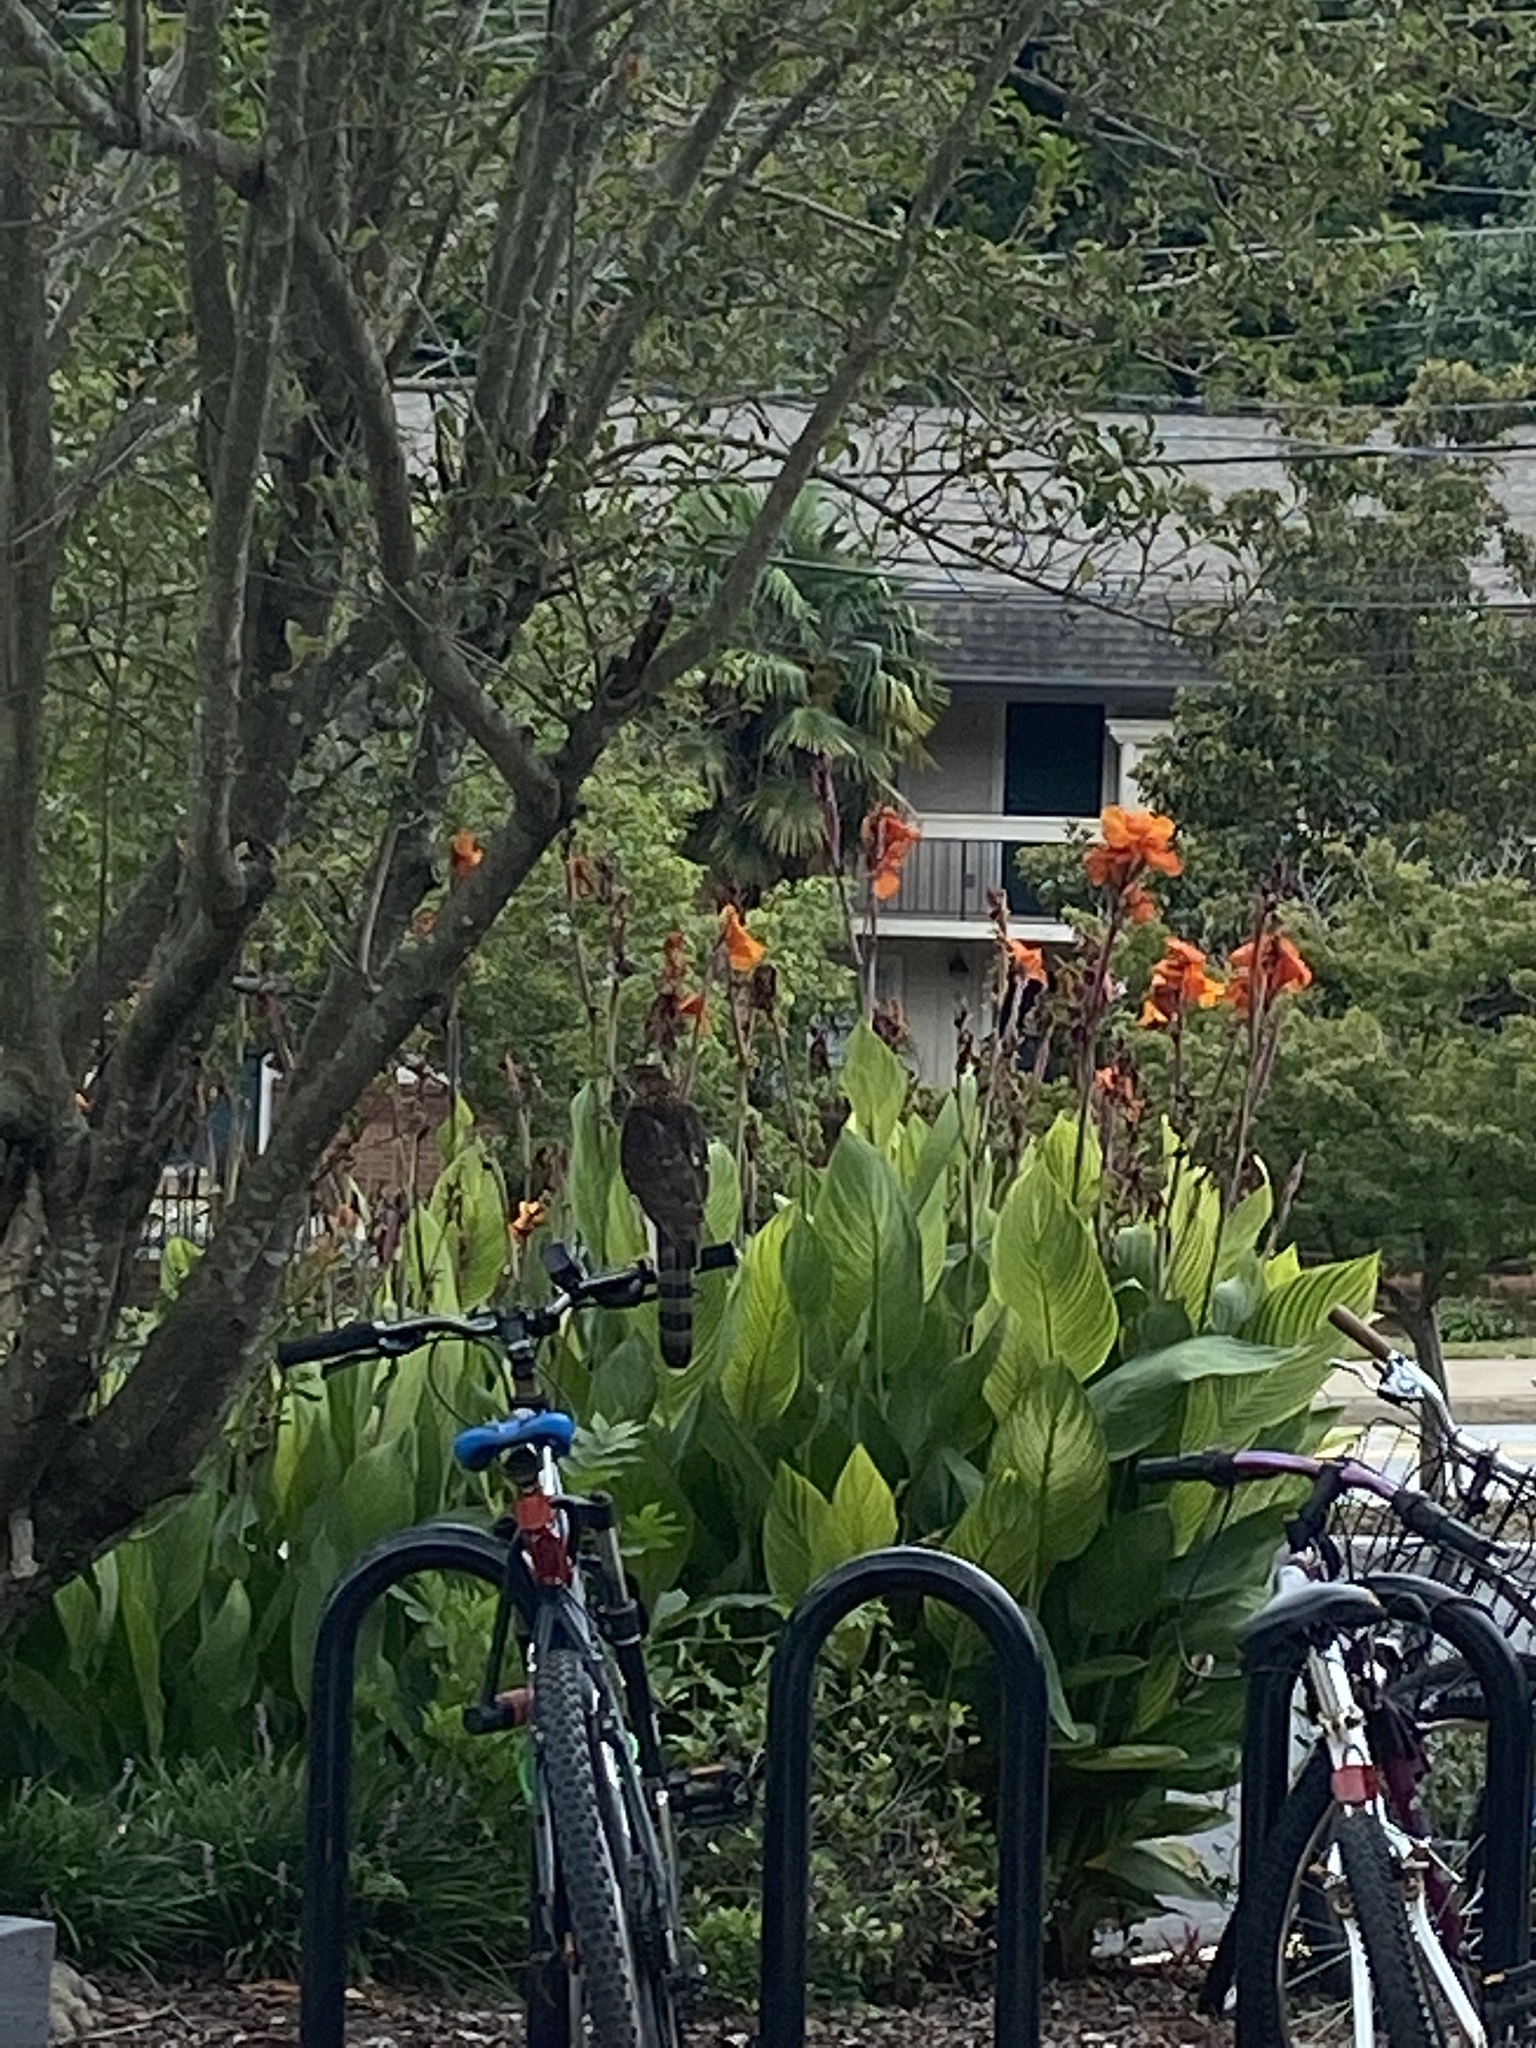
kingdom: Animalia
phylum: Chordata
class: Aves
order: Accipitriformes
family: Accipitridae
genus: Accipiter
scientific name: Accipiter cooperii
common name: Cooper's hawk
